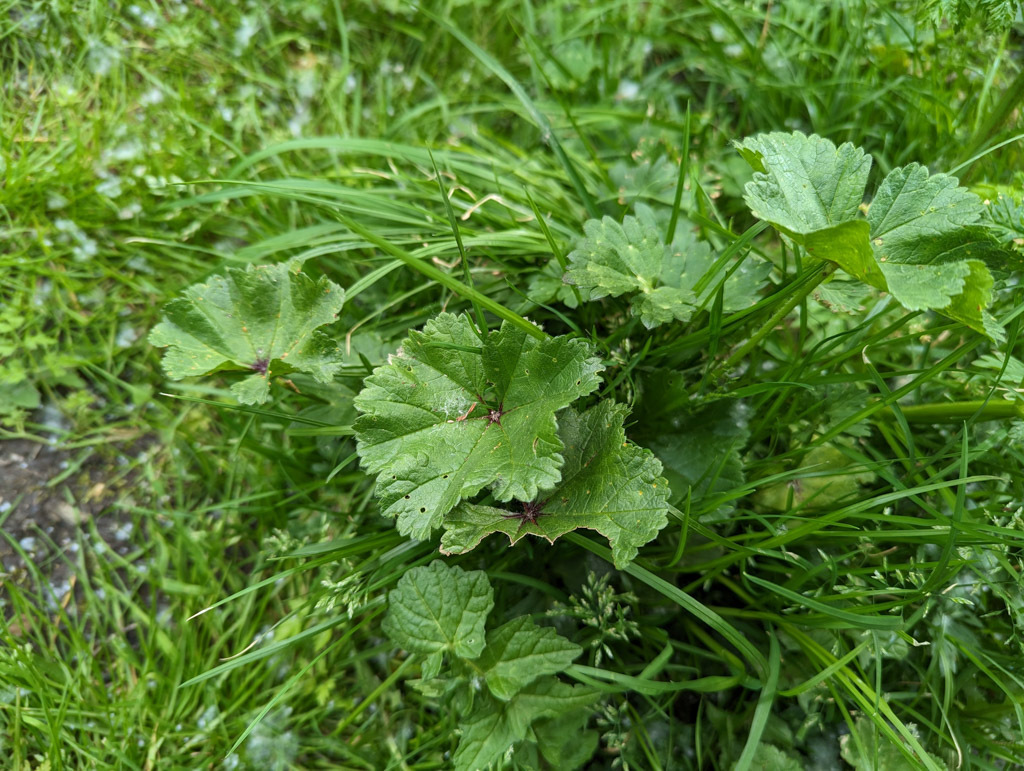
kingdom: Plantae
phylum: Tracheophyta
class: Magnoliopsida
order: Malvales
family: Malvaceae
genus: Malva
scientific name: Malva sylvestris
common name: Common mallow
